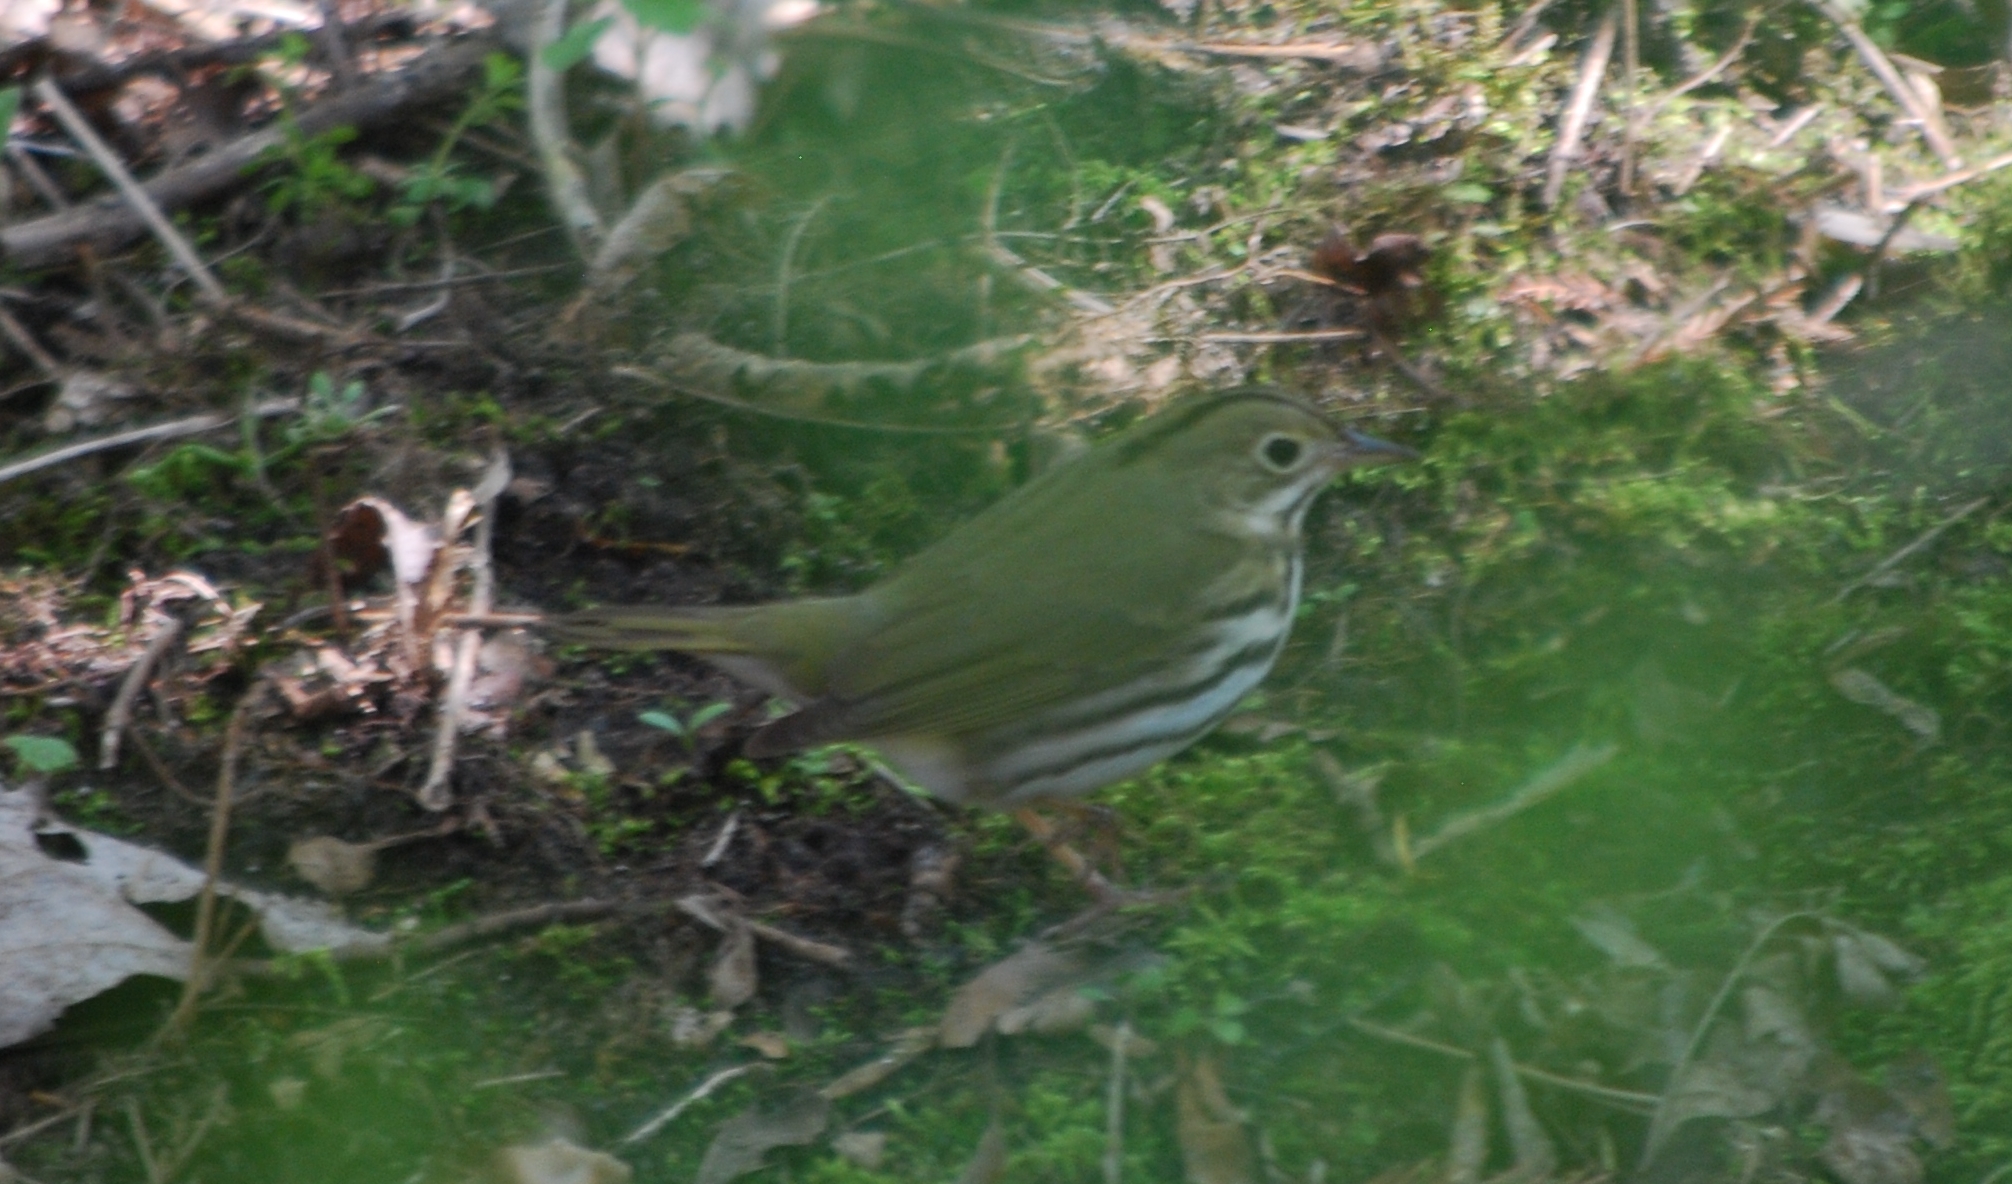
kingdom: Animalia
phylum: Chordata
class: Aves
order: Passeriformes
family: Parulidae
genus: Seiurus
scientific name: Seiurus aurocapilla
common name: Ovenbird
